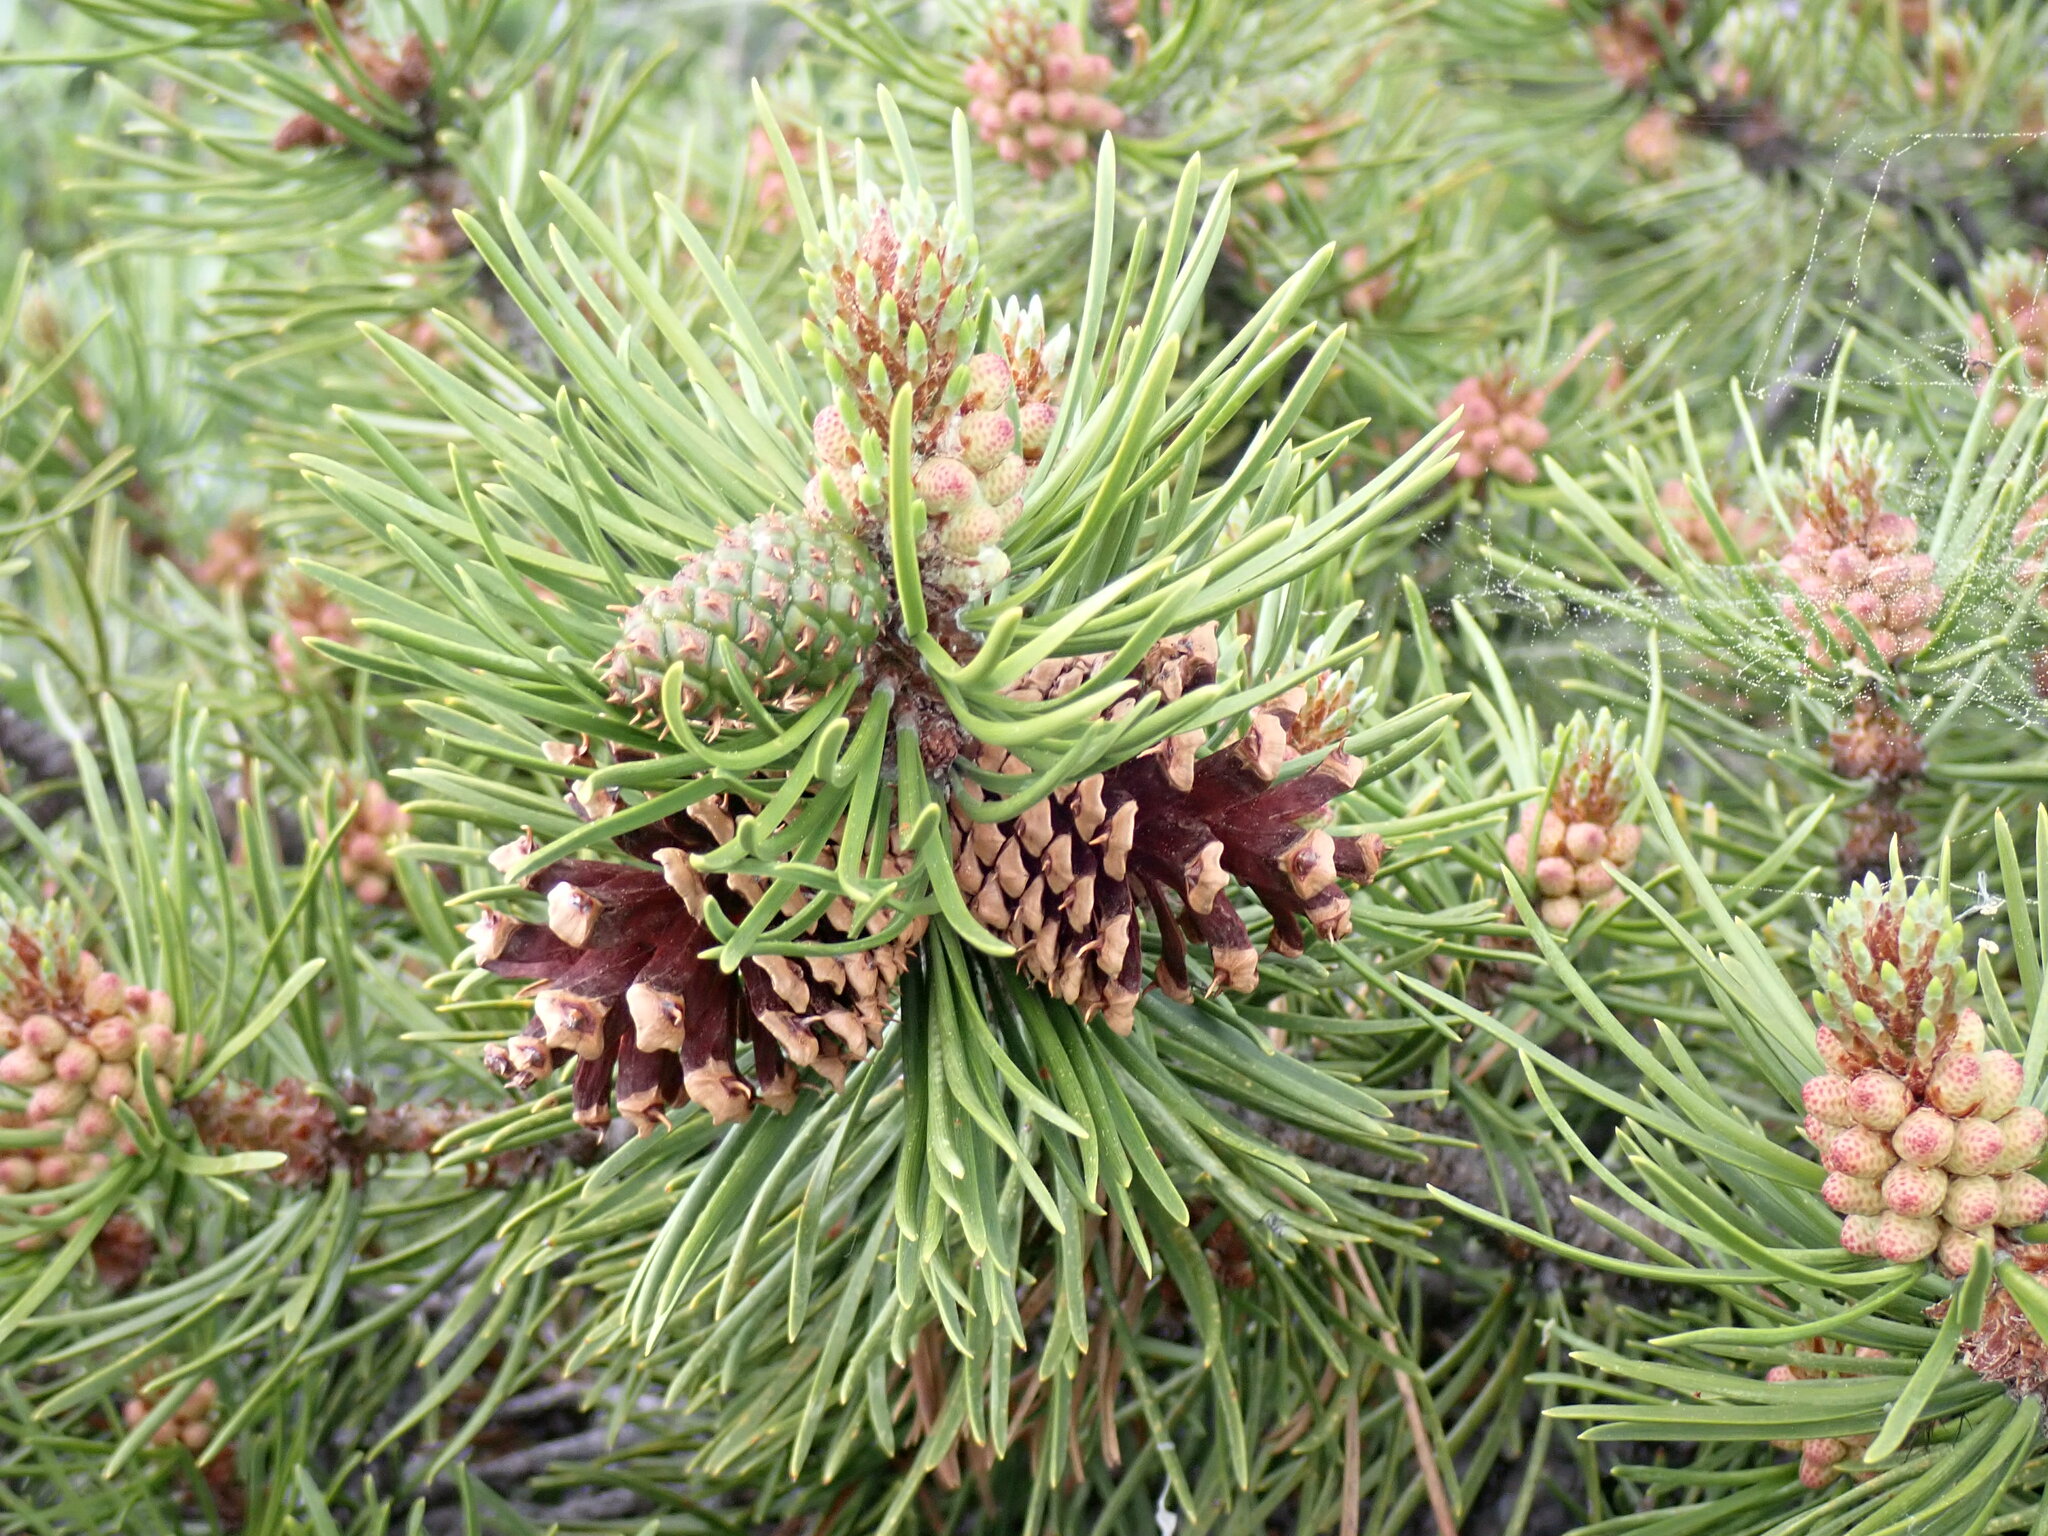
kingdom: Plantae
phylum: Tracheophyta
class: Pinopsida
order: Pinales
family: Pinaceae
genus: Pinus
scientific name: Pinus contorta
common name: Lodgepole pine
